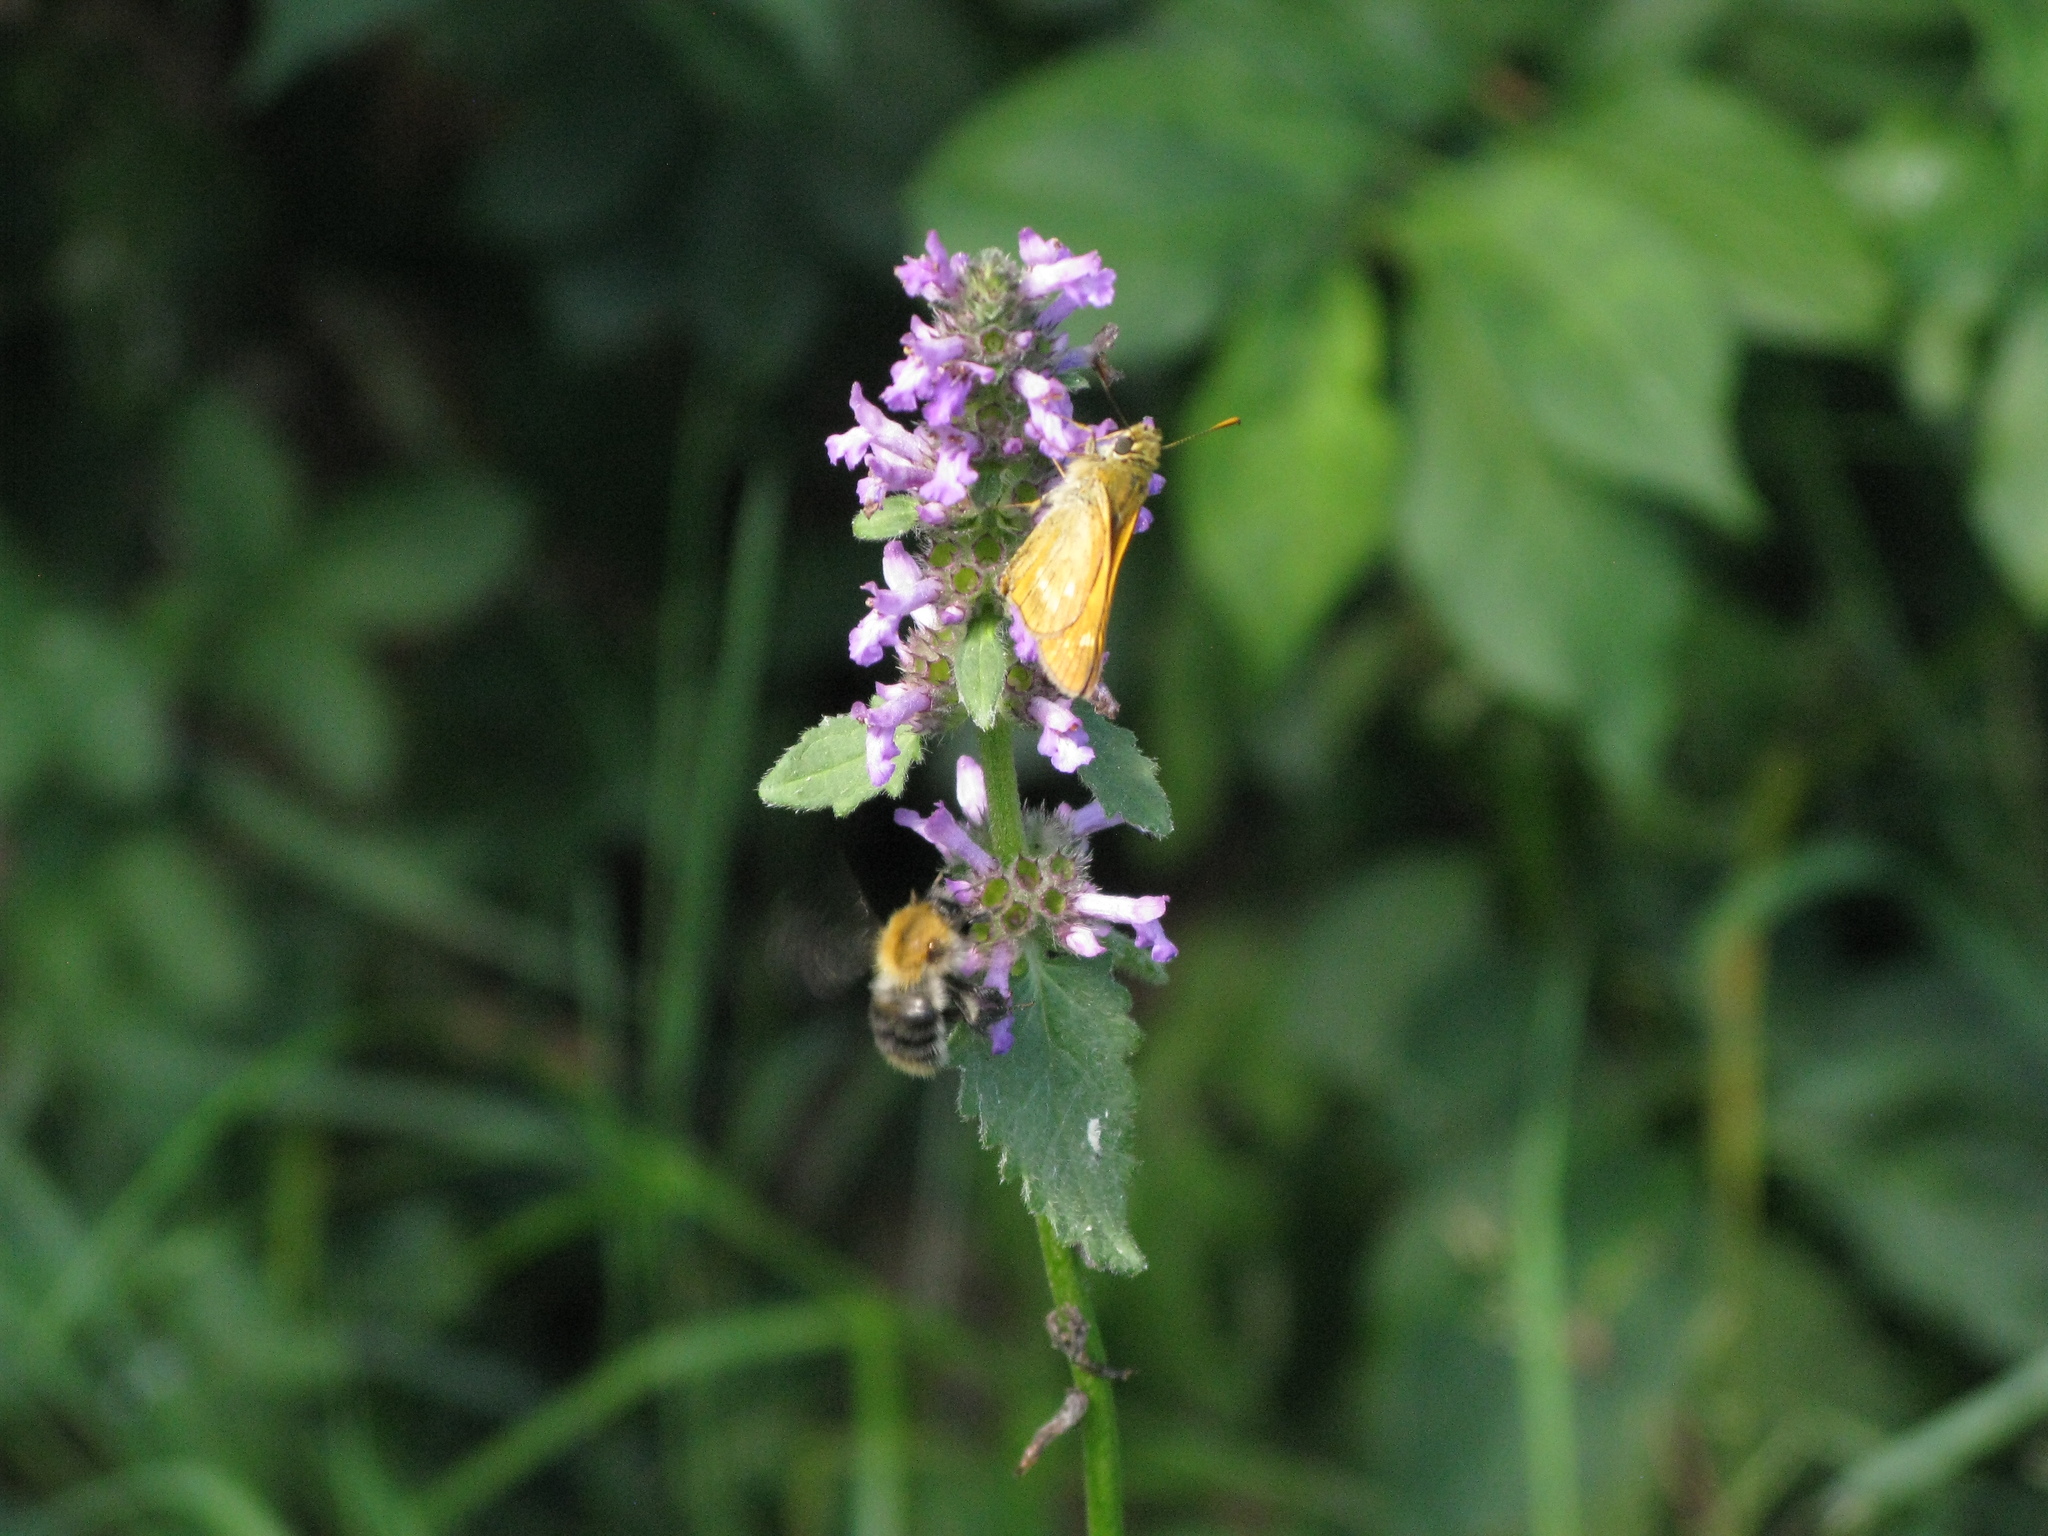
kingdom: Animalia
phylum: Arthropoda
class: Insecta
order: Lepidoptera
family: Hesperiidae
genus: Ochlodes
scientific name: Ochlodes venata
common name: Large skipper
